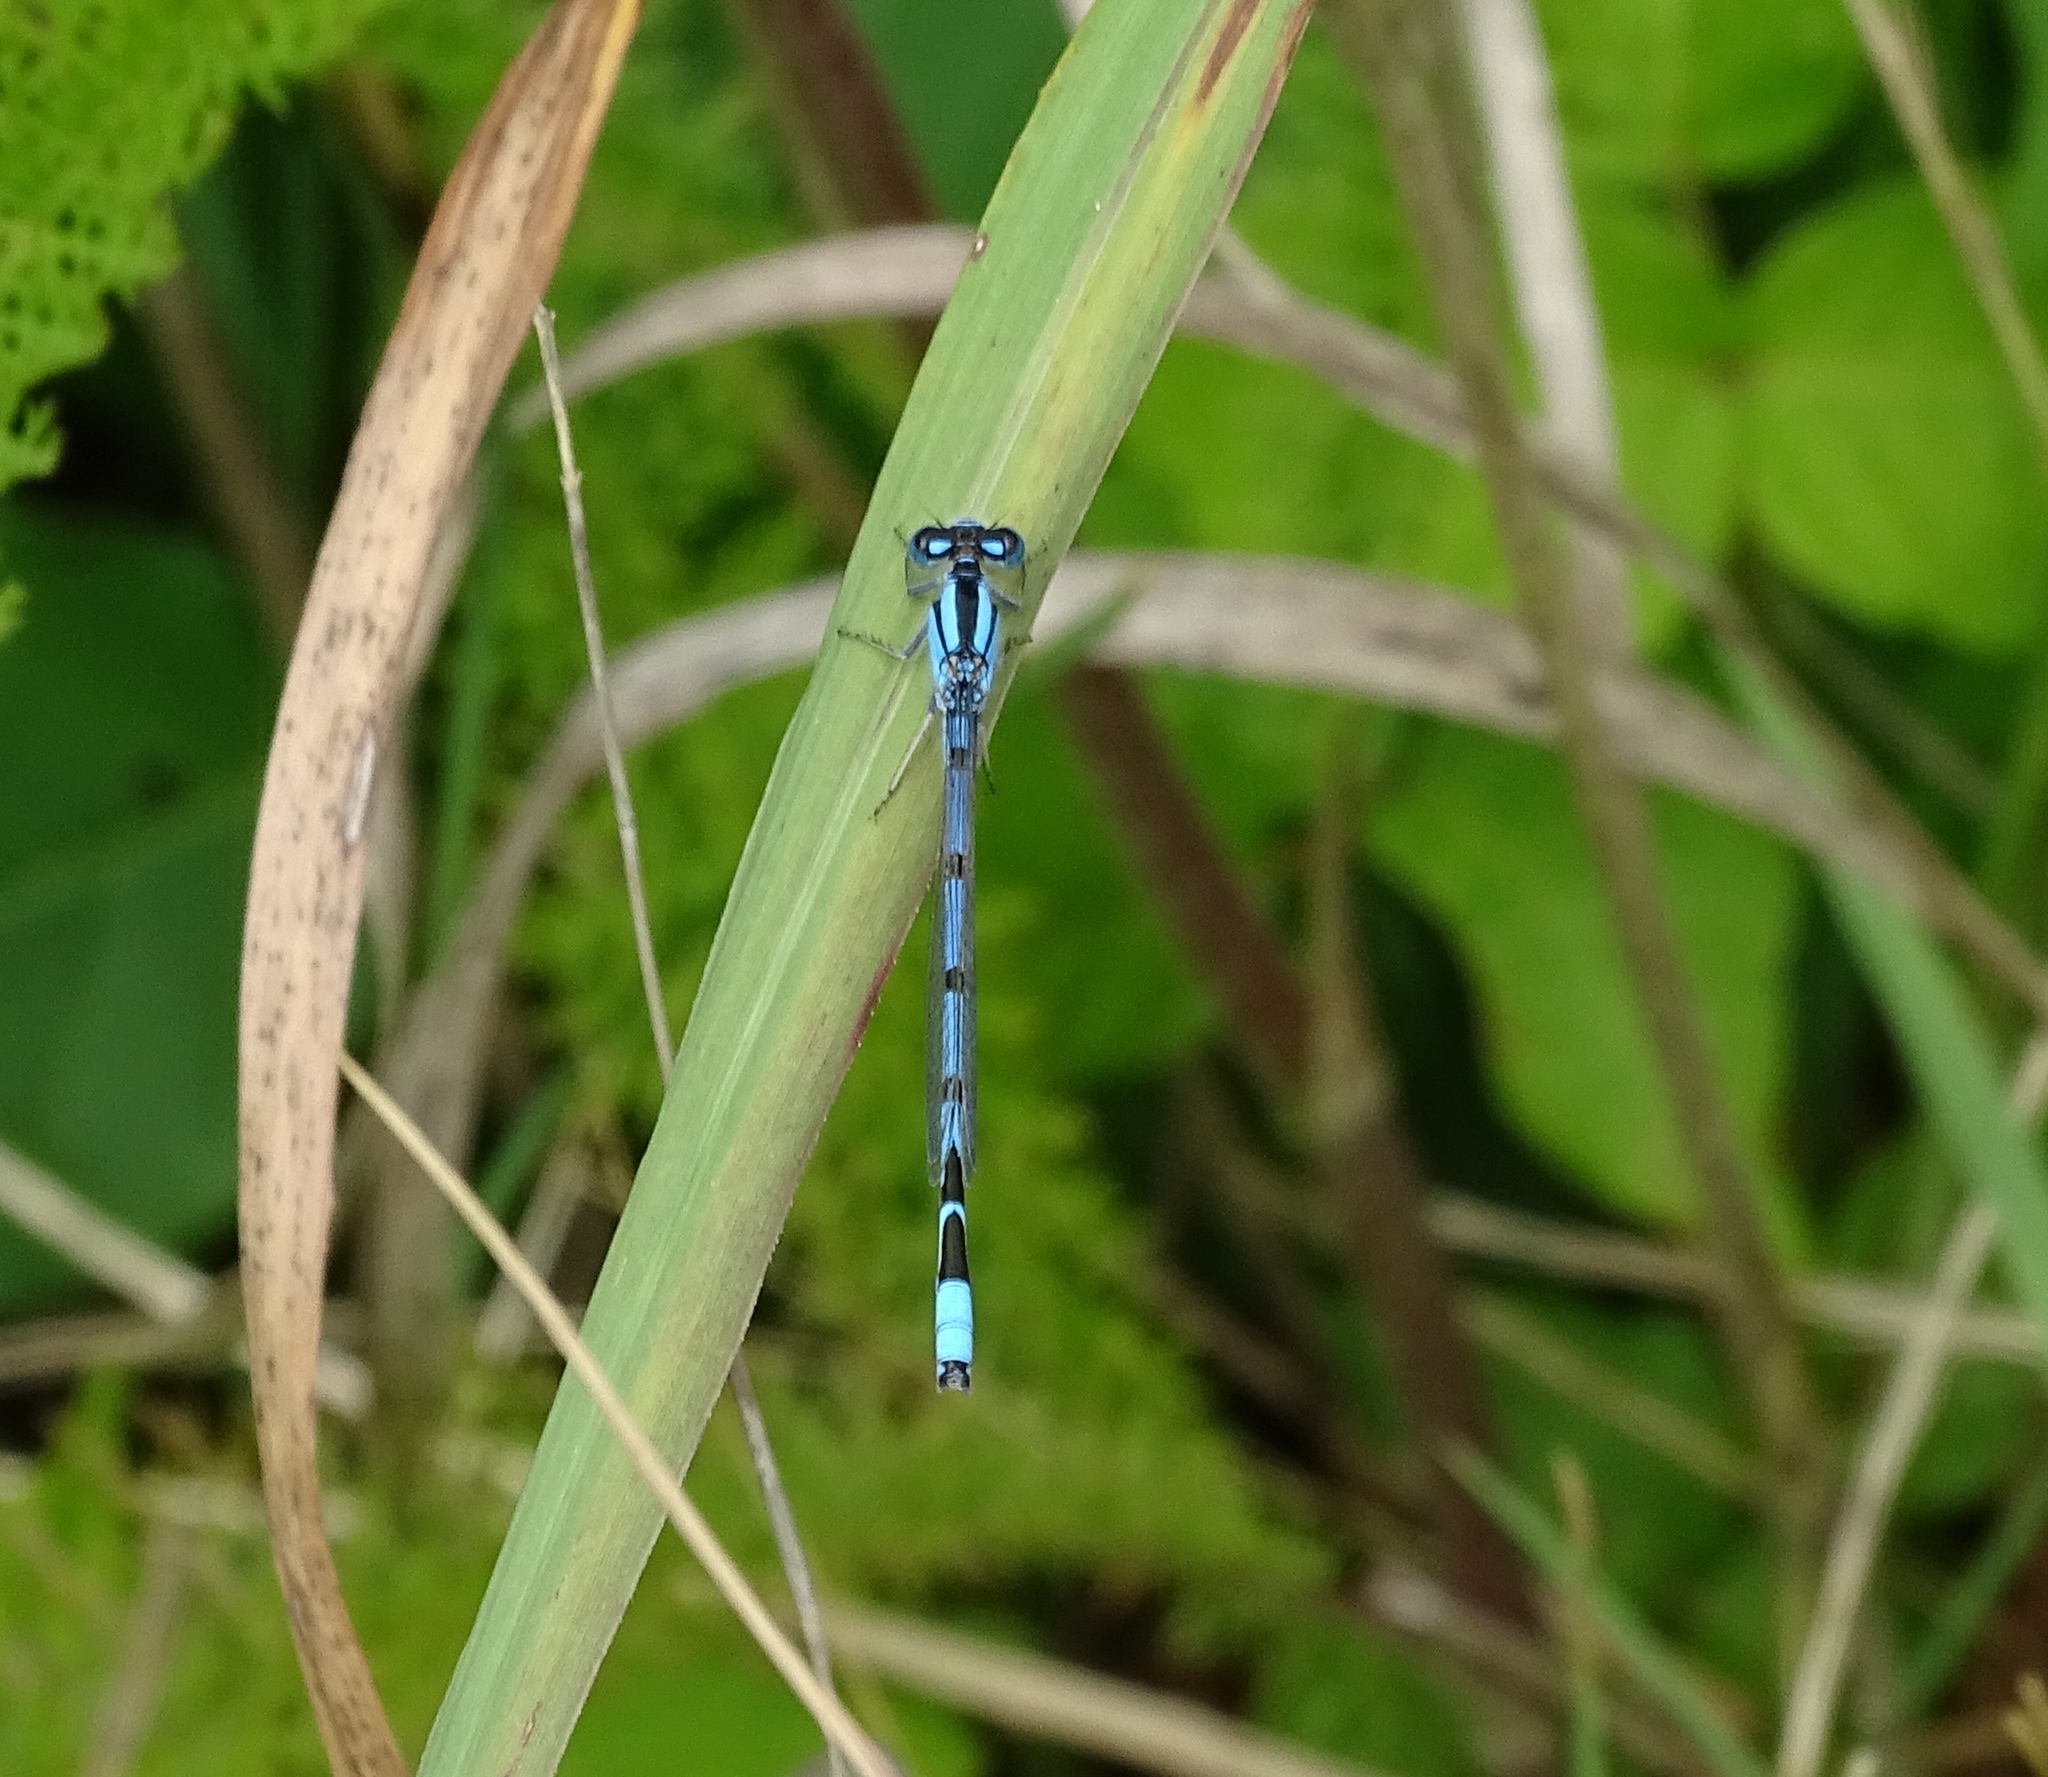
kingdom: Animalia
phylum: Arthropoda
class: Insecta
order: Odonata
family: Coenagrionidae
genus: Enallagma
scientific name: Enallagma civile
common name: Damselfly
